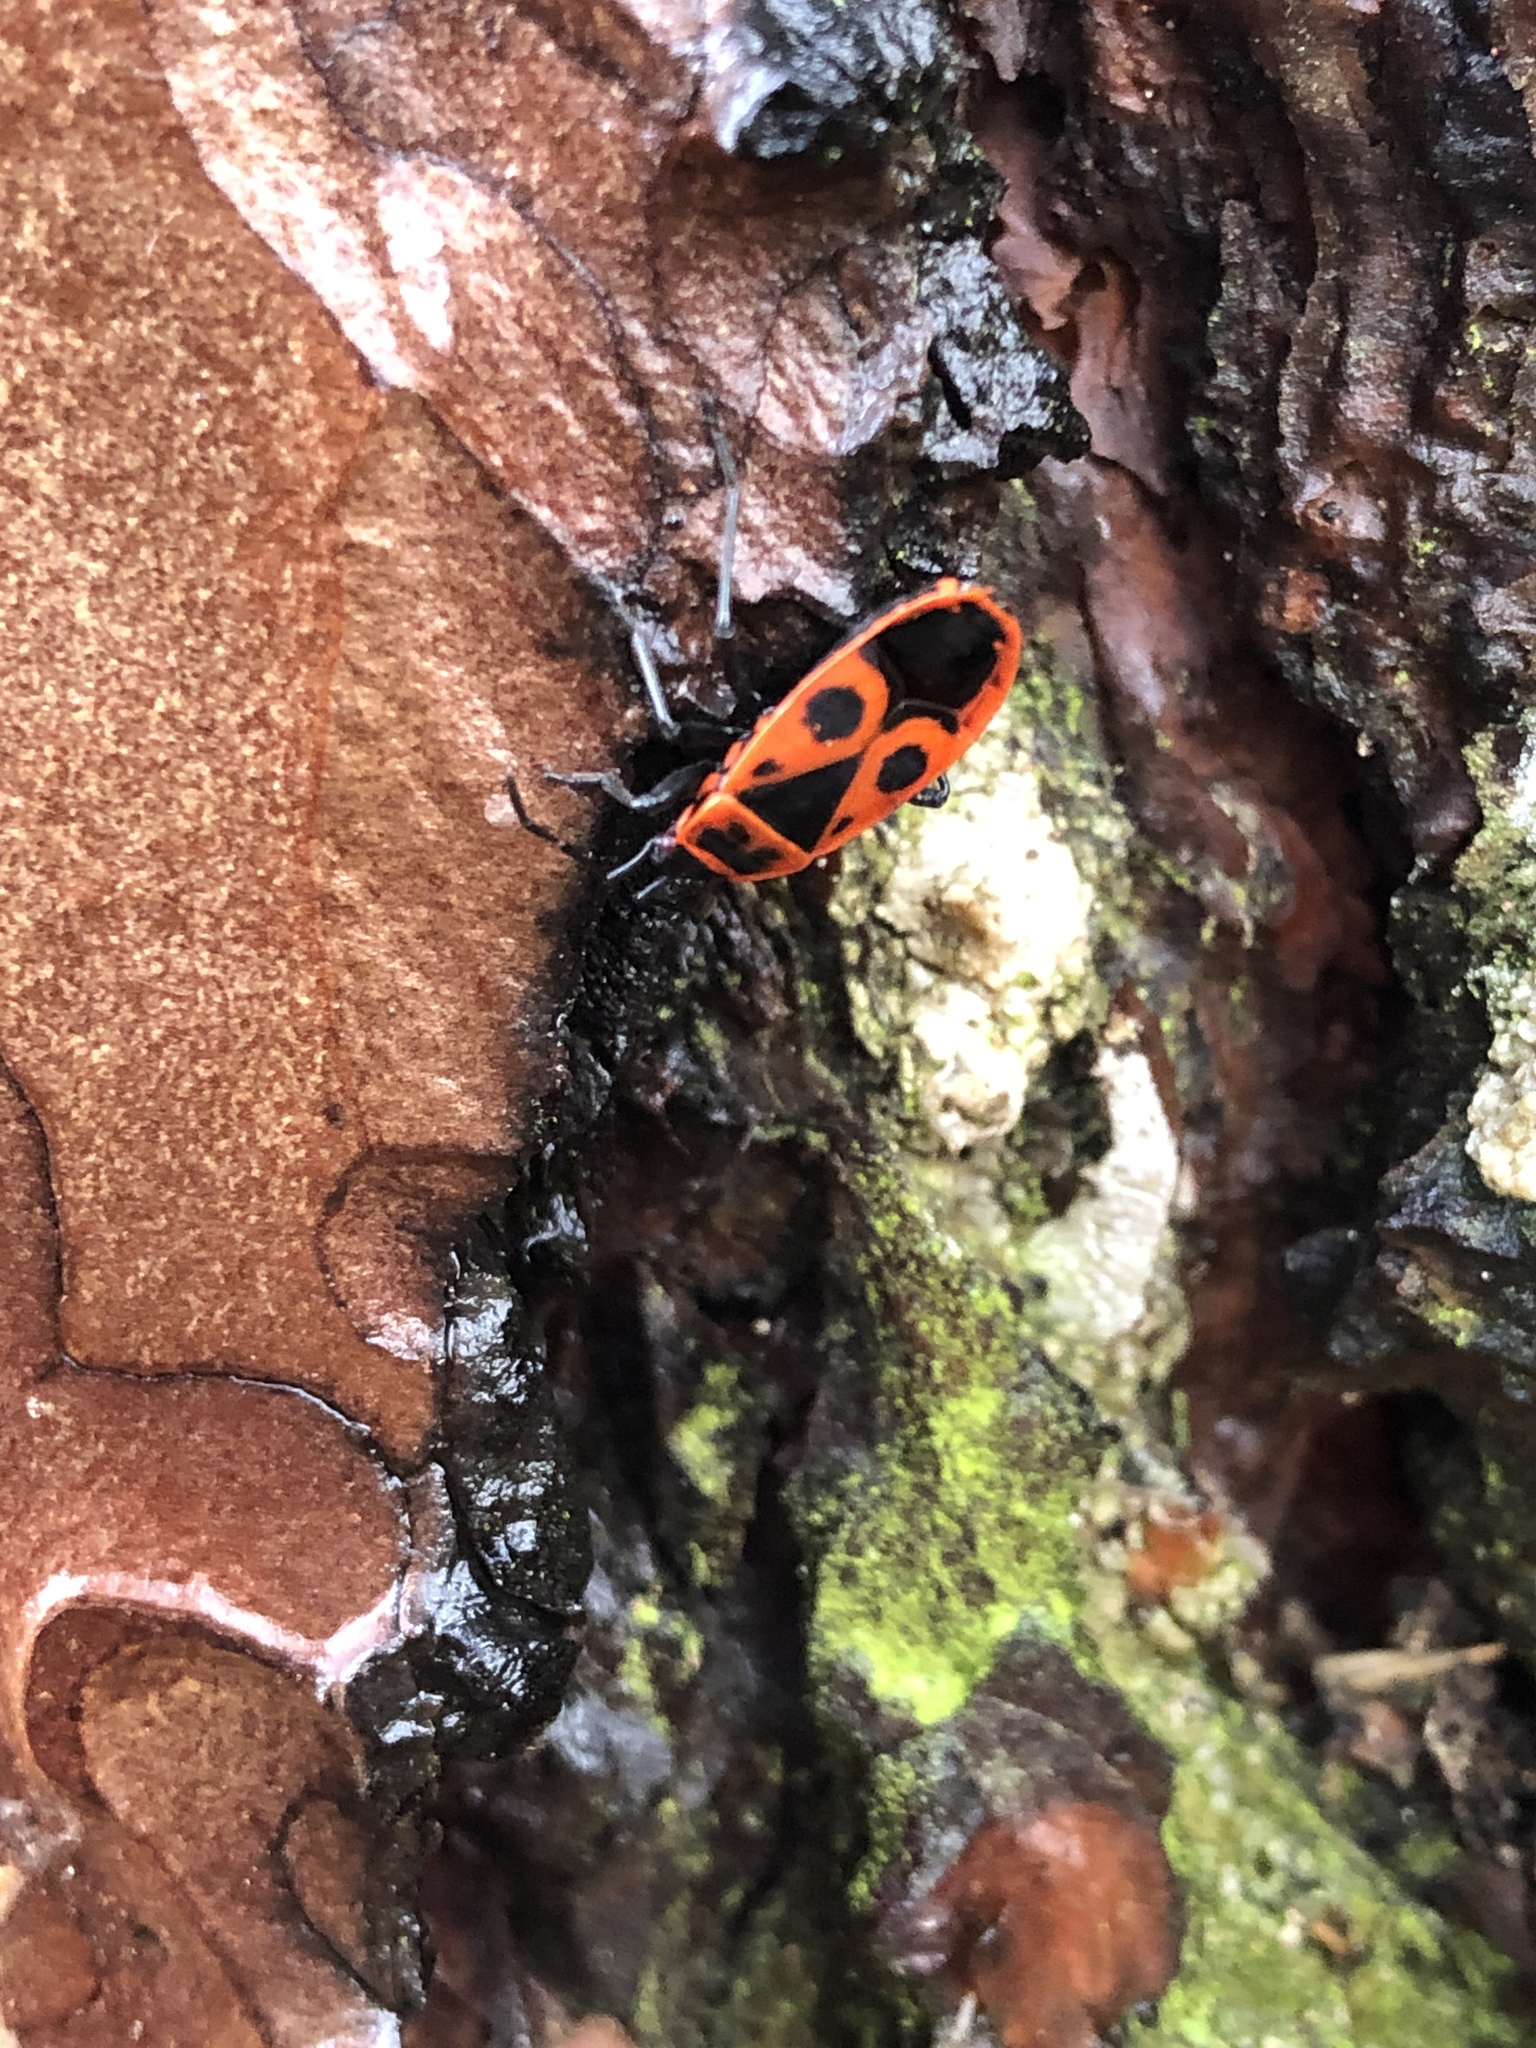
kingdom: Animalia
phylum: Arthropoda
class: Insecta
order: Hemiptera
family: Pyrrhocoridae
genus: Pyrrhocoris
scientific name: Pyrrhocoris apterus
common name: Firebug
